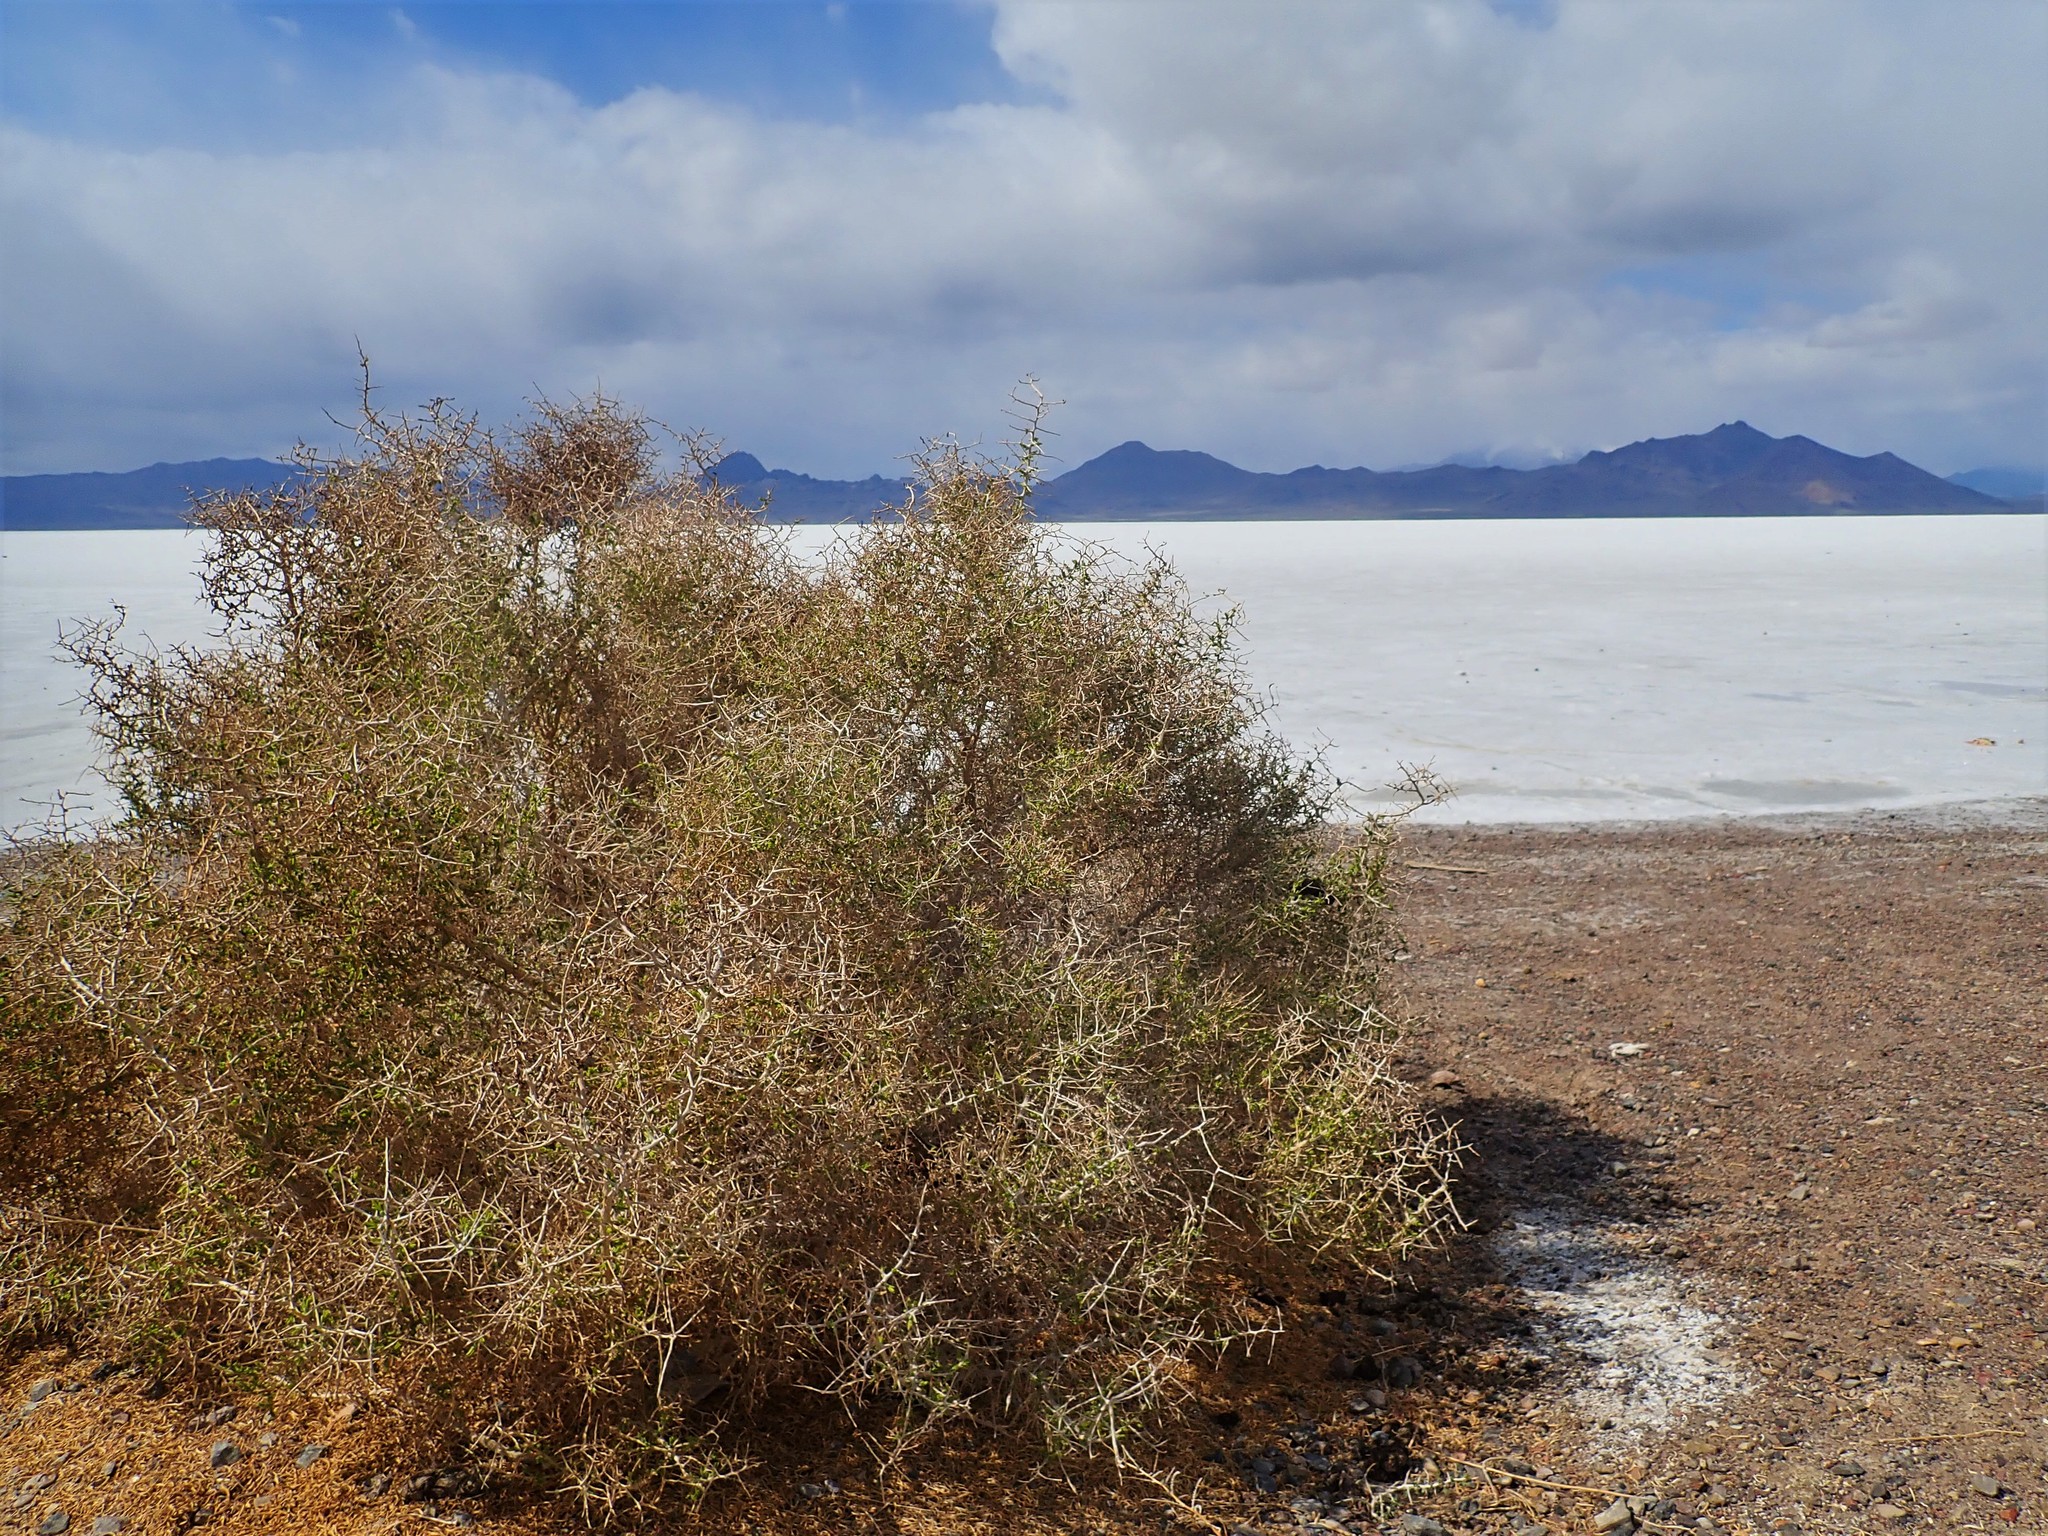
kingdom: Plantae
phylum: Tracheophyta
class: Magnoliopsida
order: Caryophyllales
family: Sarcobataceae
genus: Sarcobatus
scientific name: Sarcobatus vermiculatus
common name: Greasewood
